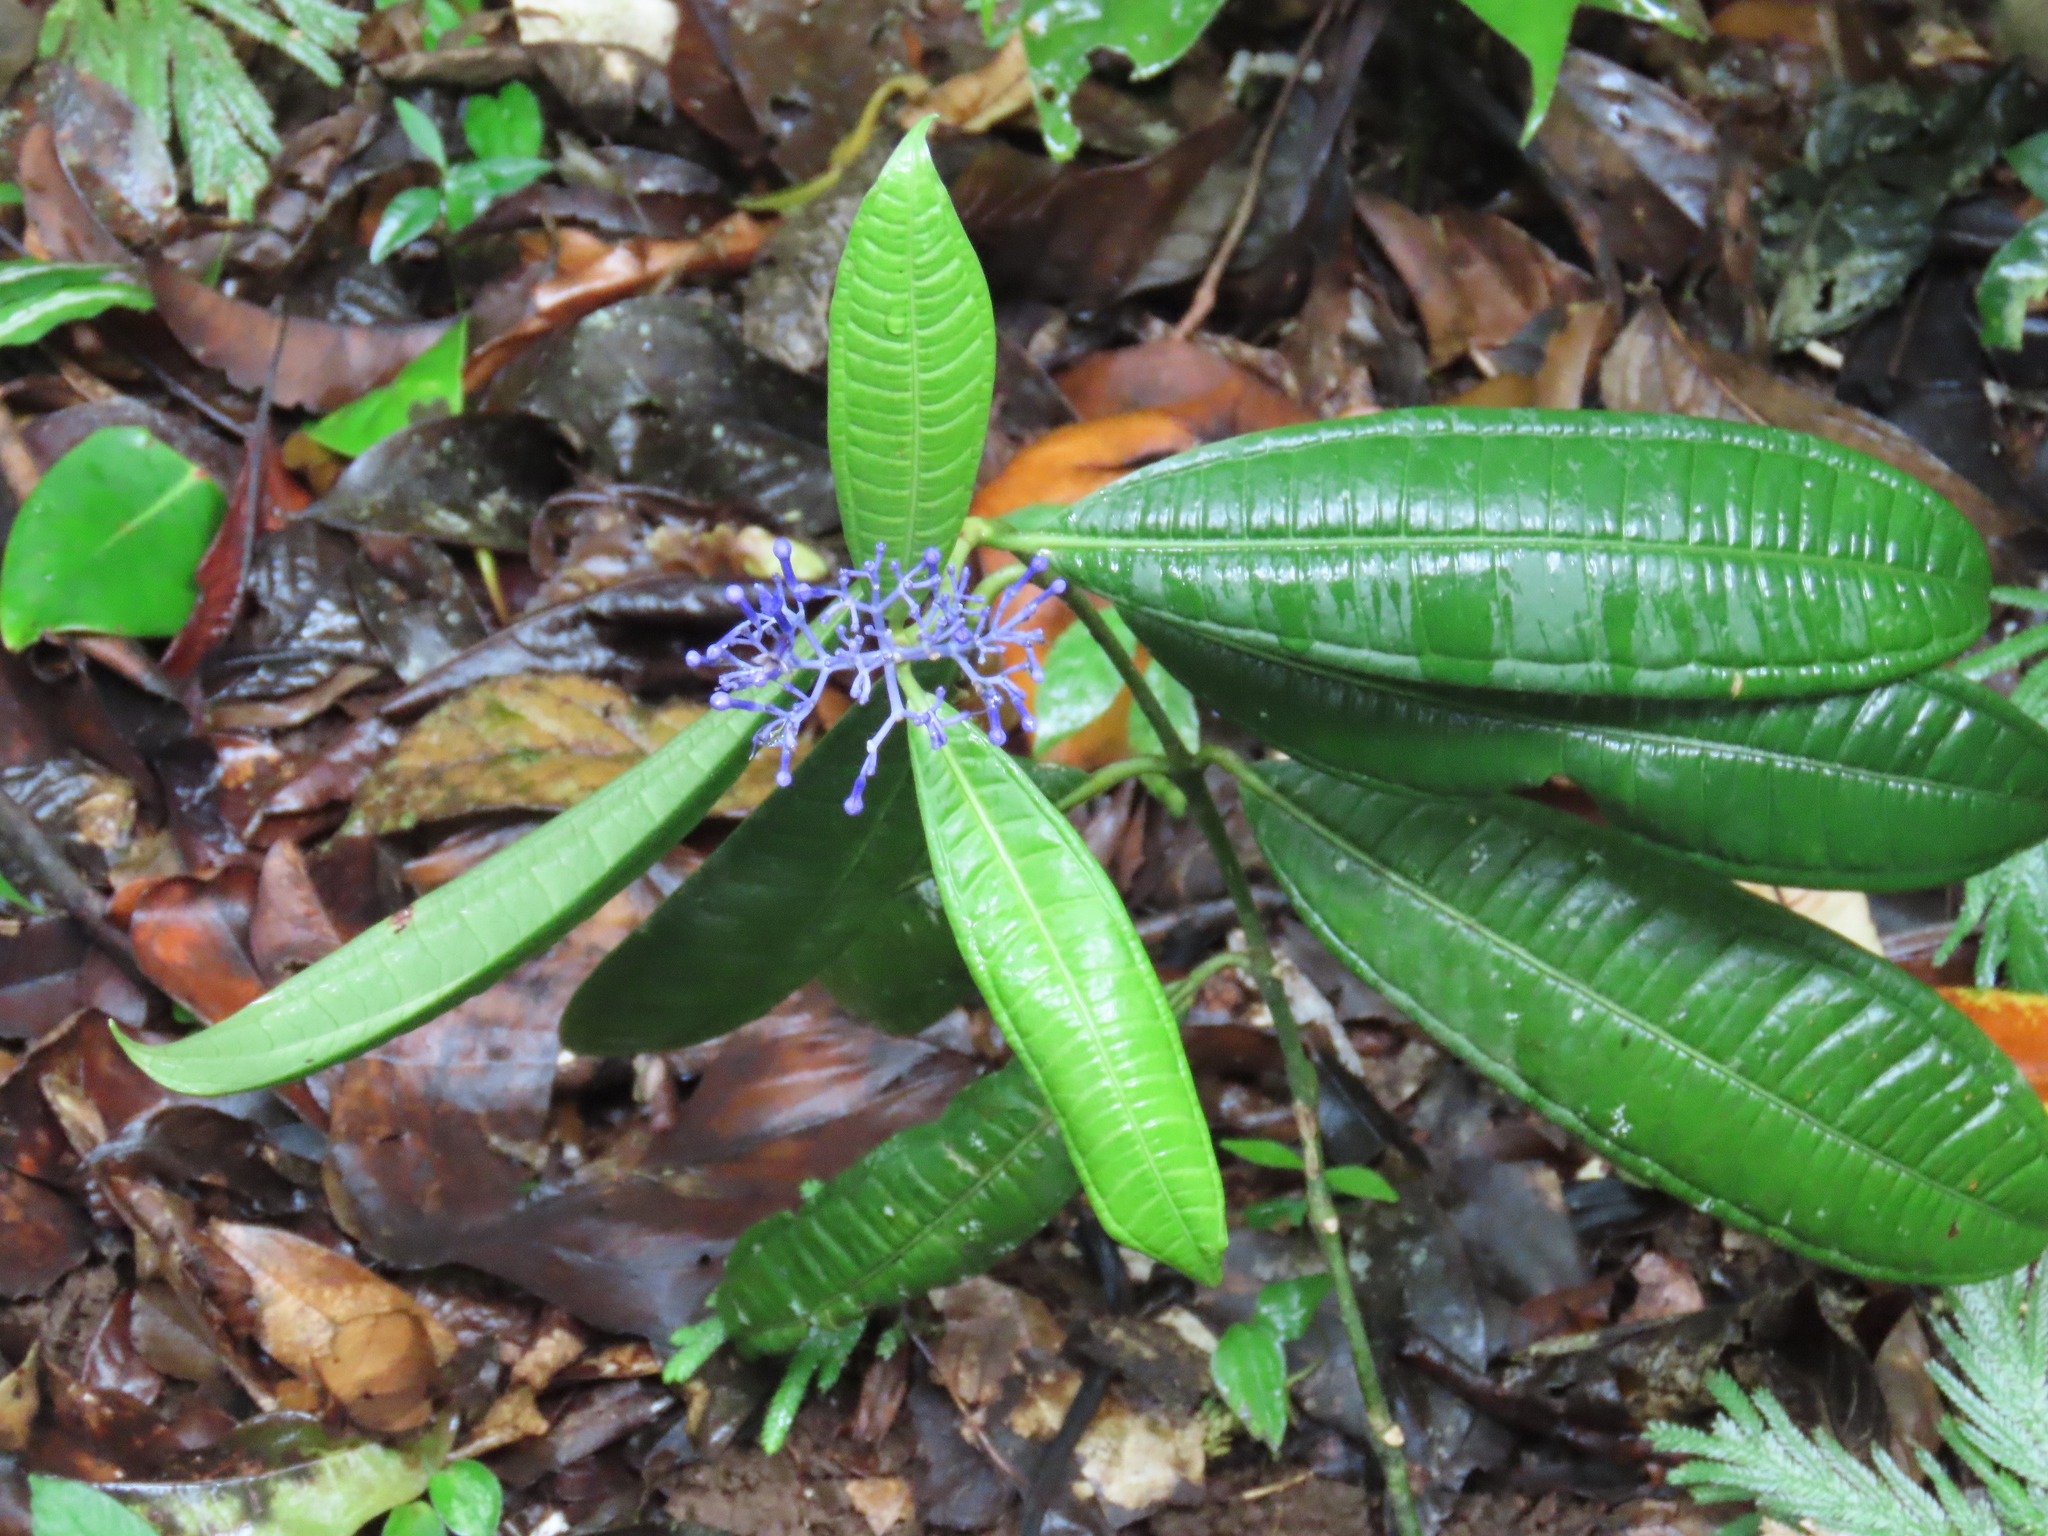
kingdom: Plantae
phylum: Tracheophyta
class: Magnoliopsida
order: Gentianales
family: Rubiaceae
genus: Faramea
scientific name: Faramea suerrensis
